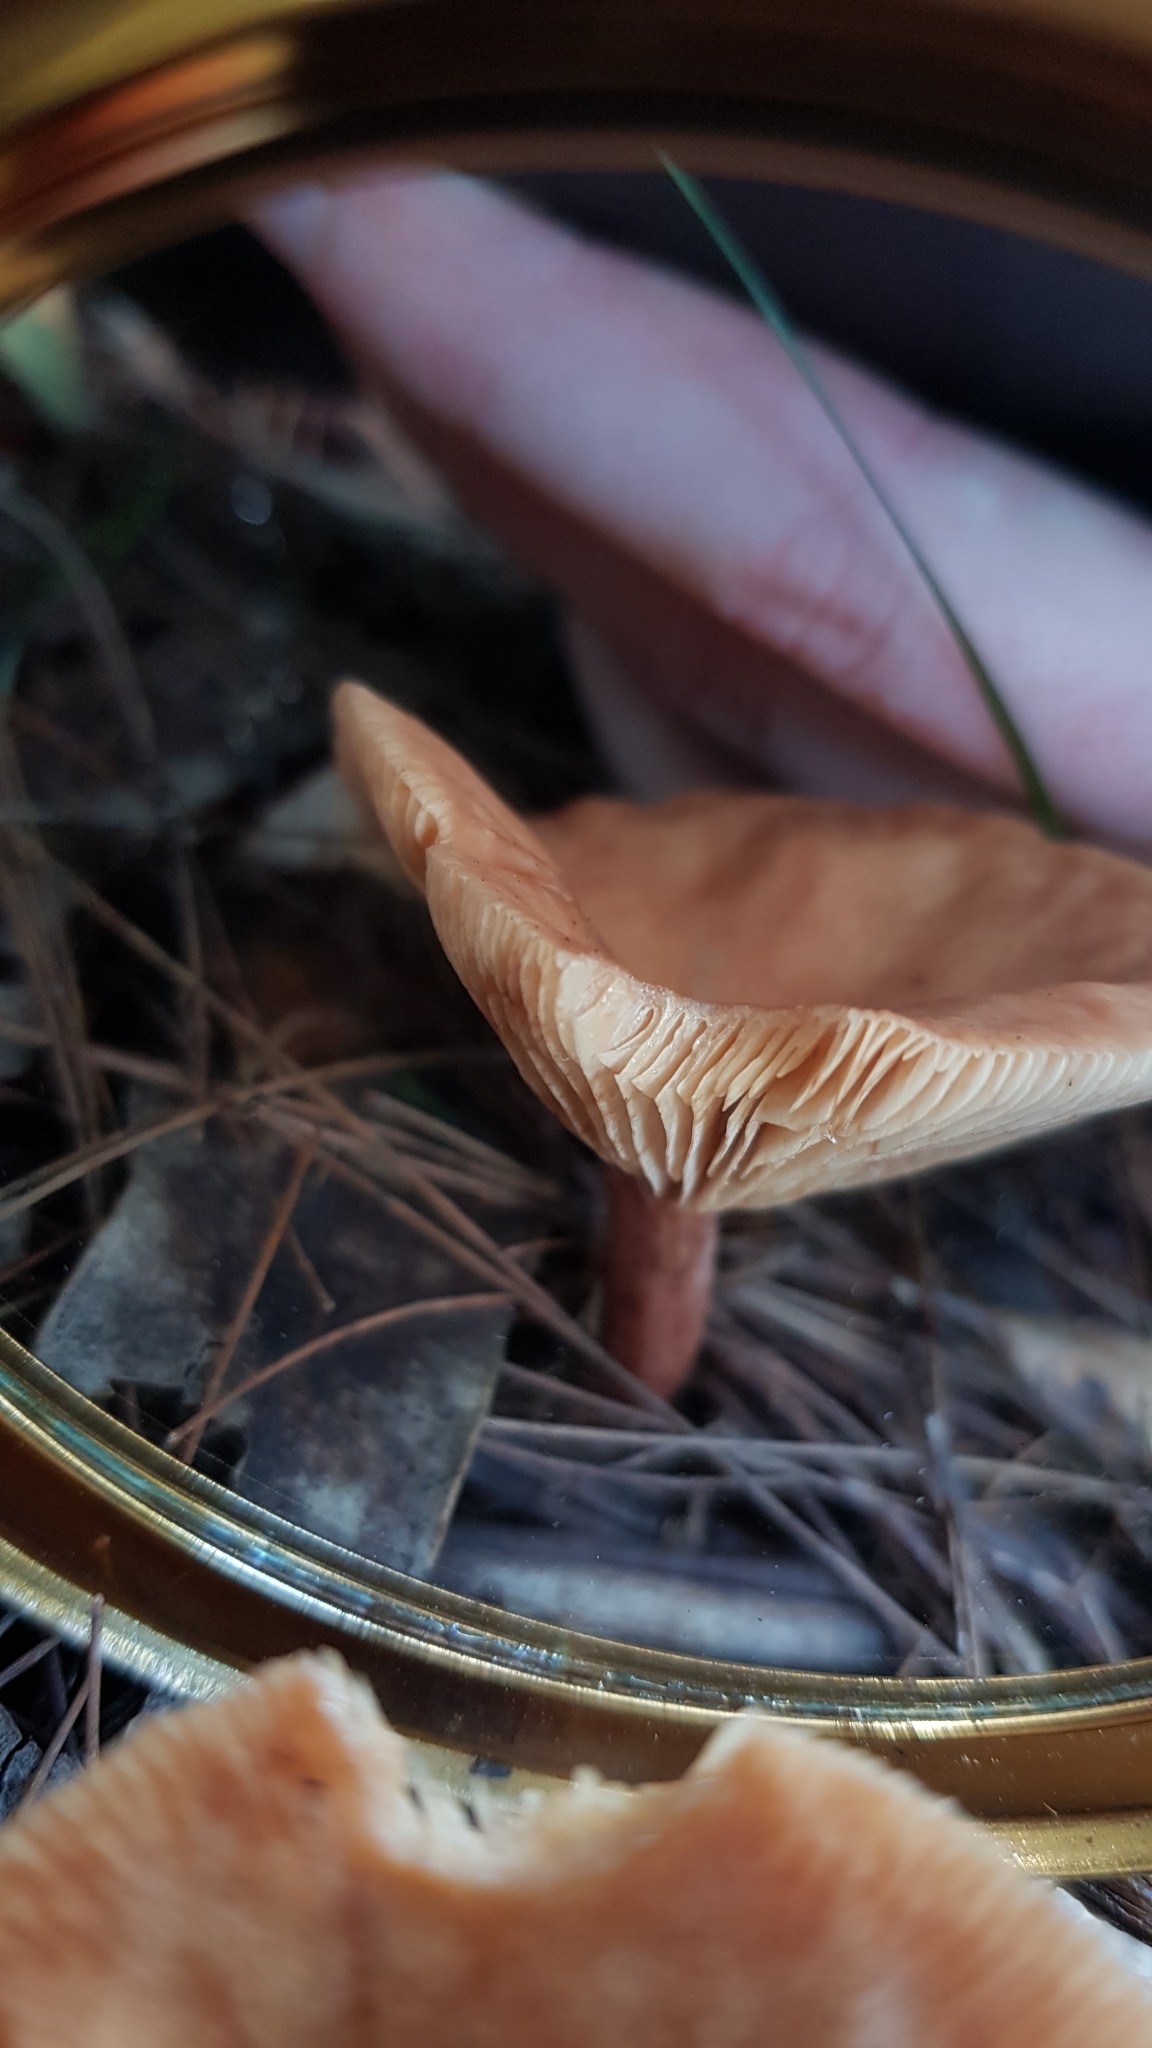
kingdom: Fungi
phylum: Basidiomycota
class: Agaricomycetes
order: Russulales
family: Russulaceae
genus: Lactarius
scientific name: Lactarius eucalypti
